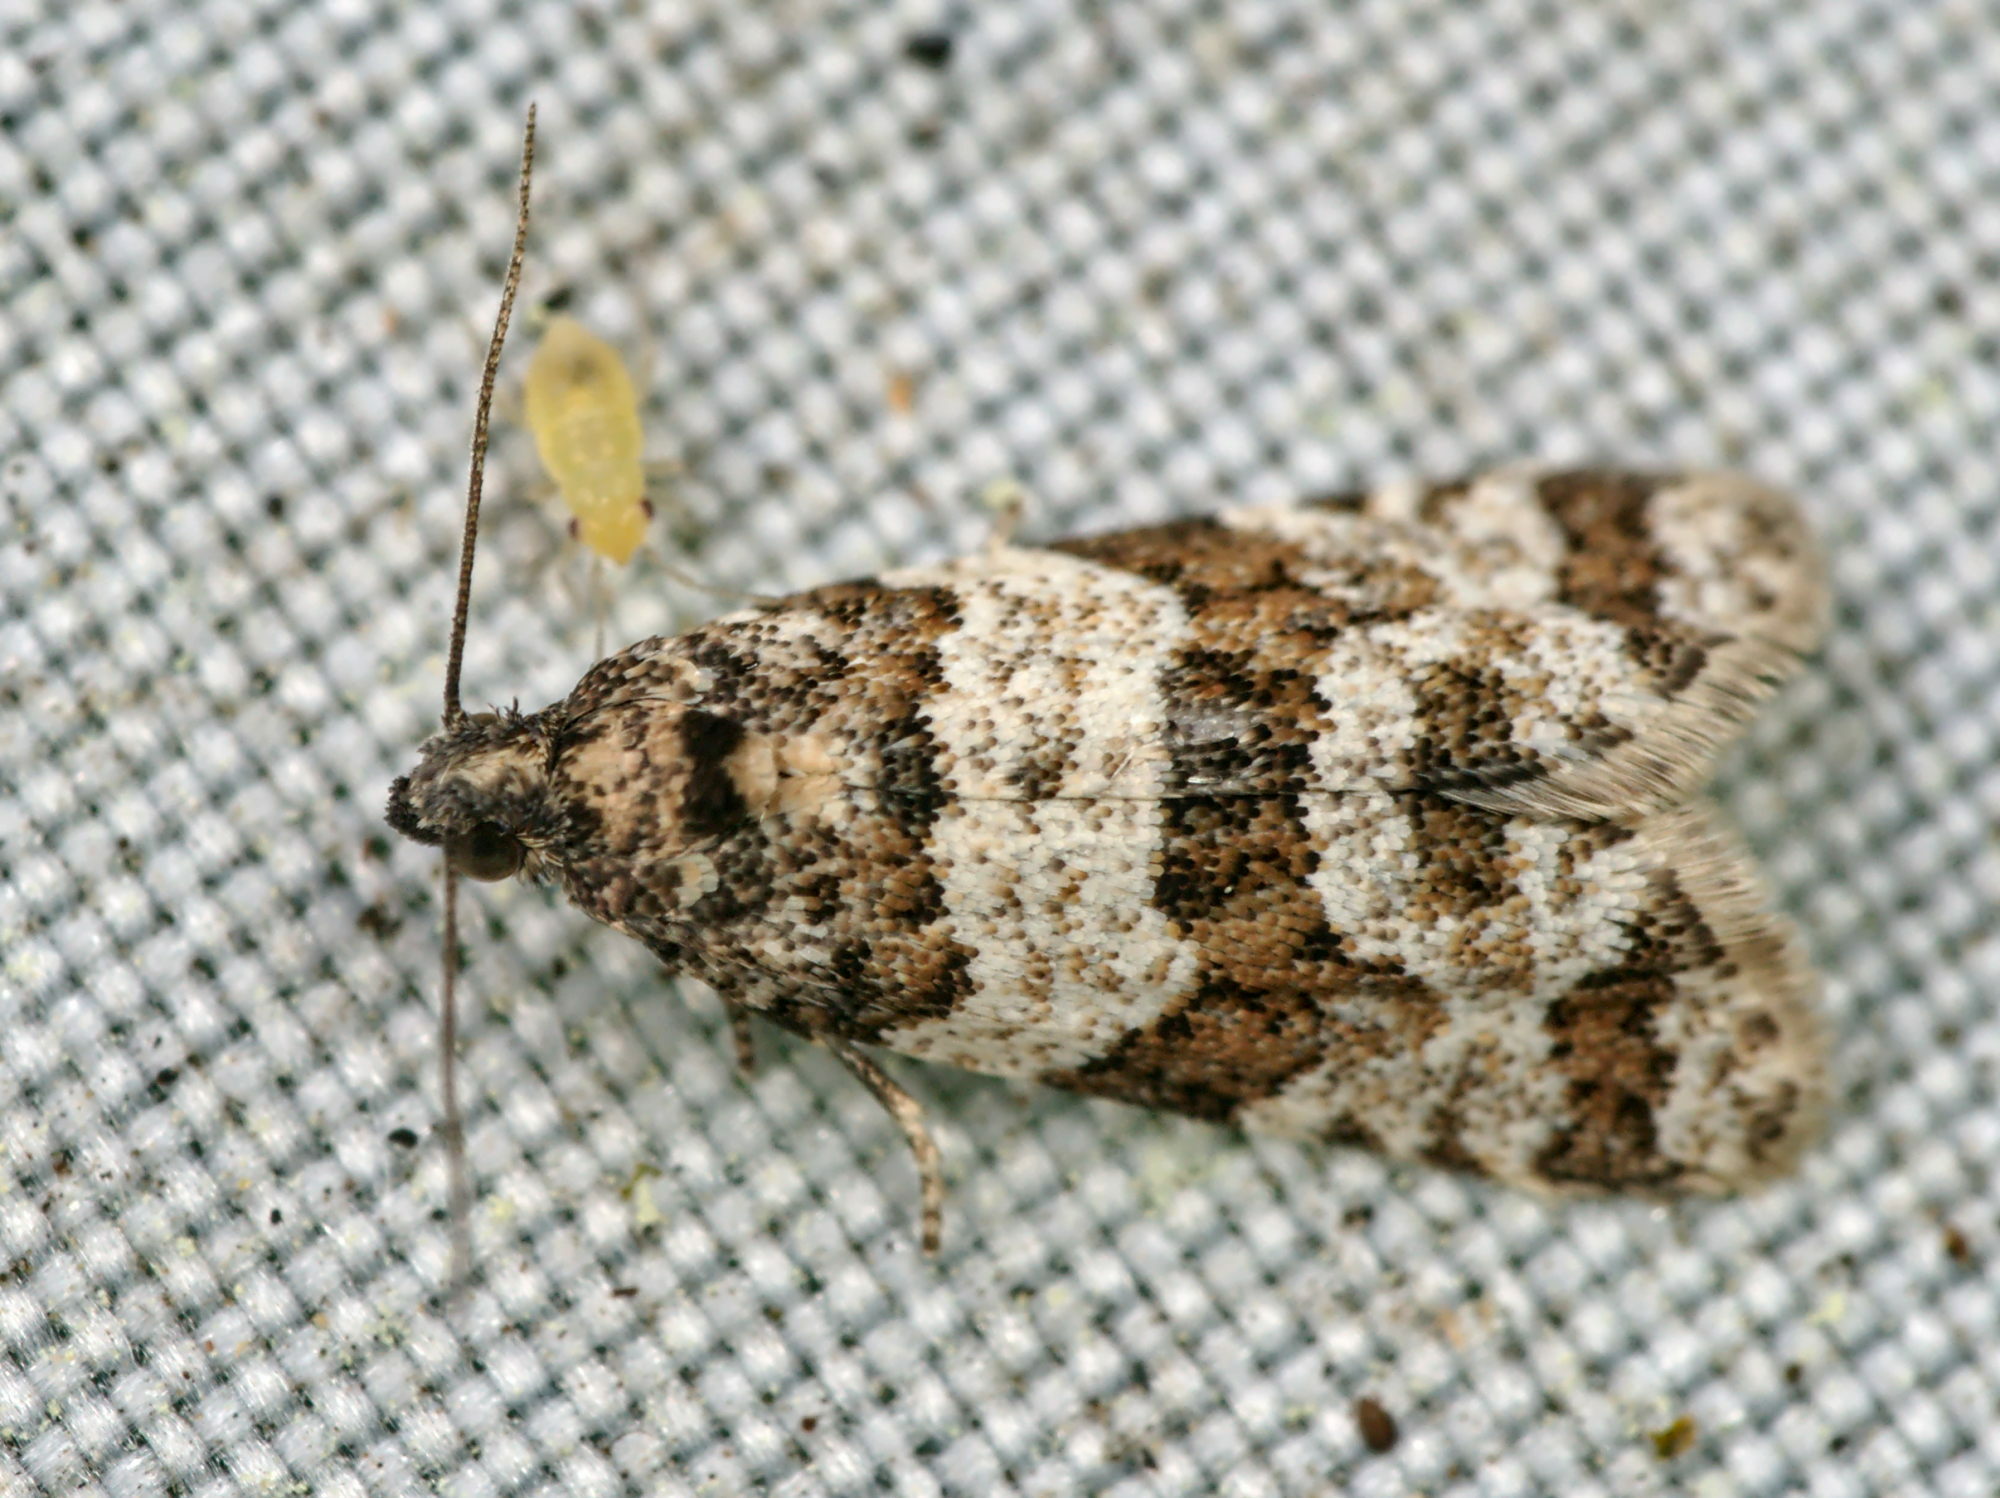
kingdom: Animalia
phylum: Arthropoda
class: Insecta
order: Lepidoptera
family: Tortricidae
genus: Isotrias
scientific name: Isotrias rectifasciana
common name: Hedge shade
